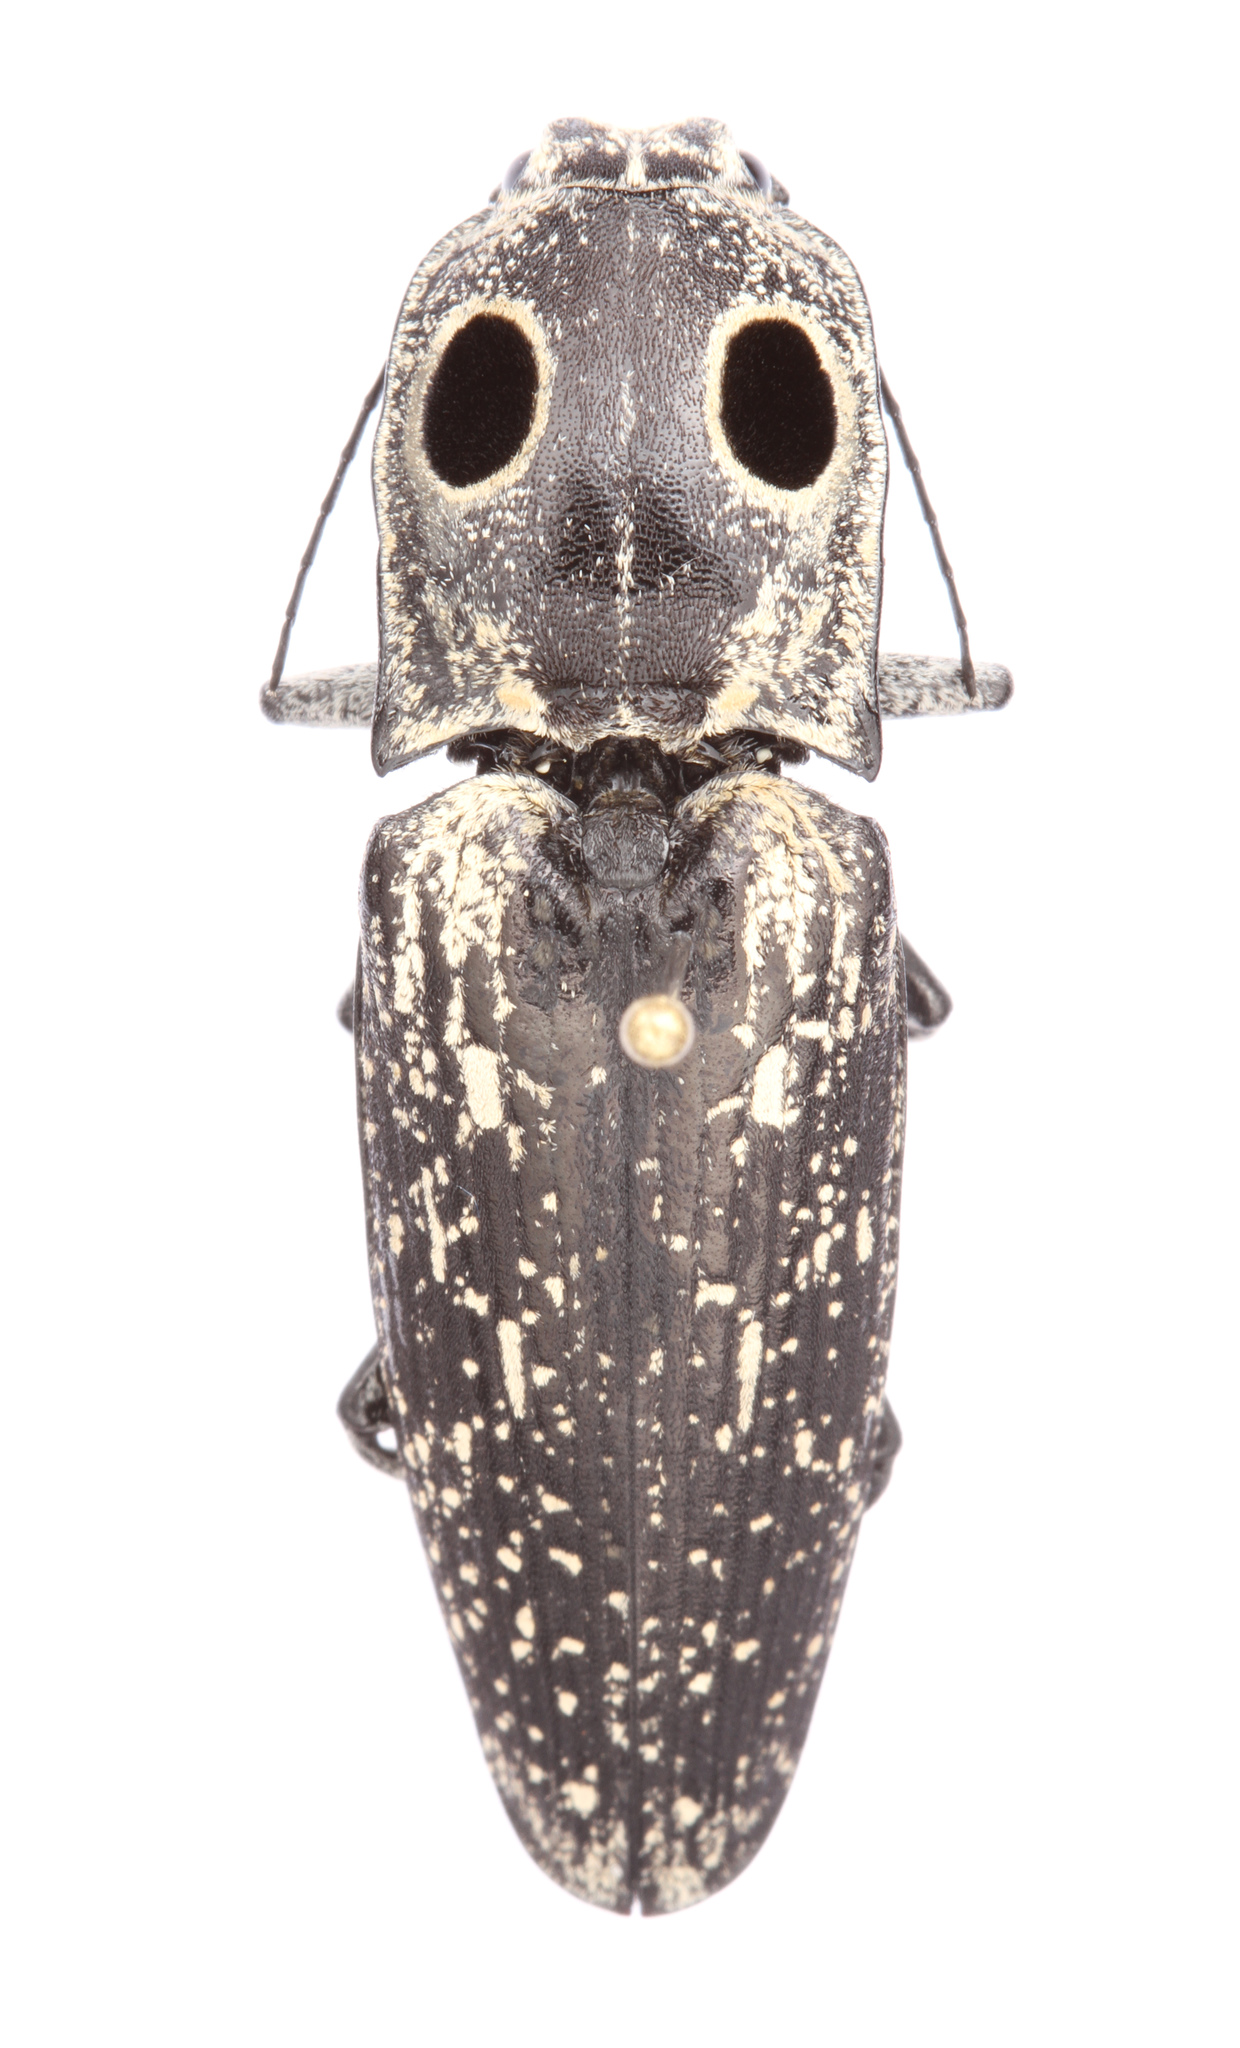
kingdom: Animalia
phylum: Arthropoda
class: Insecta
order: Coleoptera
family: Elateridae
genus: Alaus
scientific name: Alaus oculatus
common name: Eastern eyed click beetle
